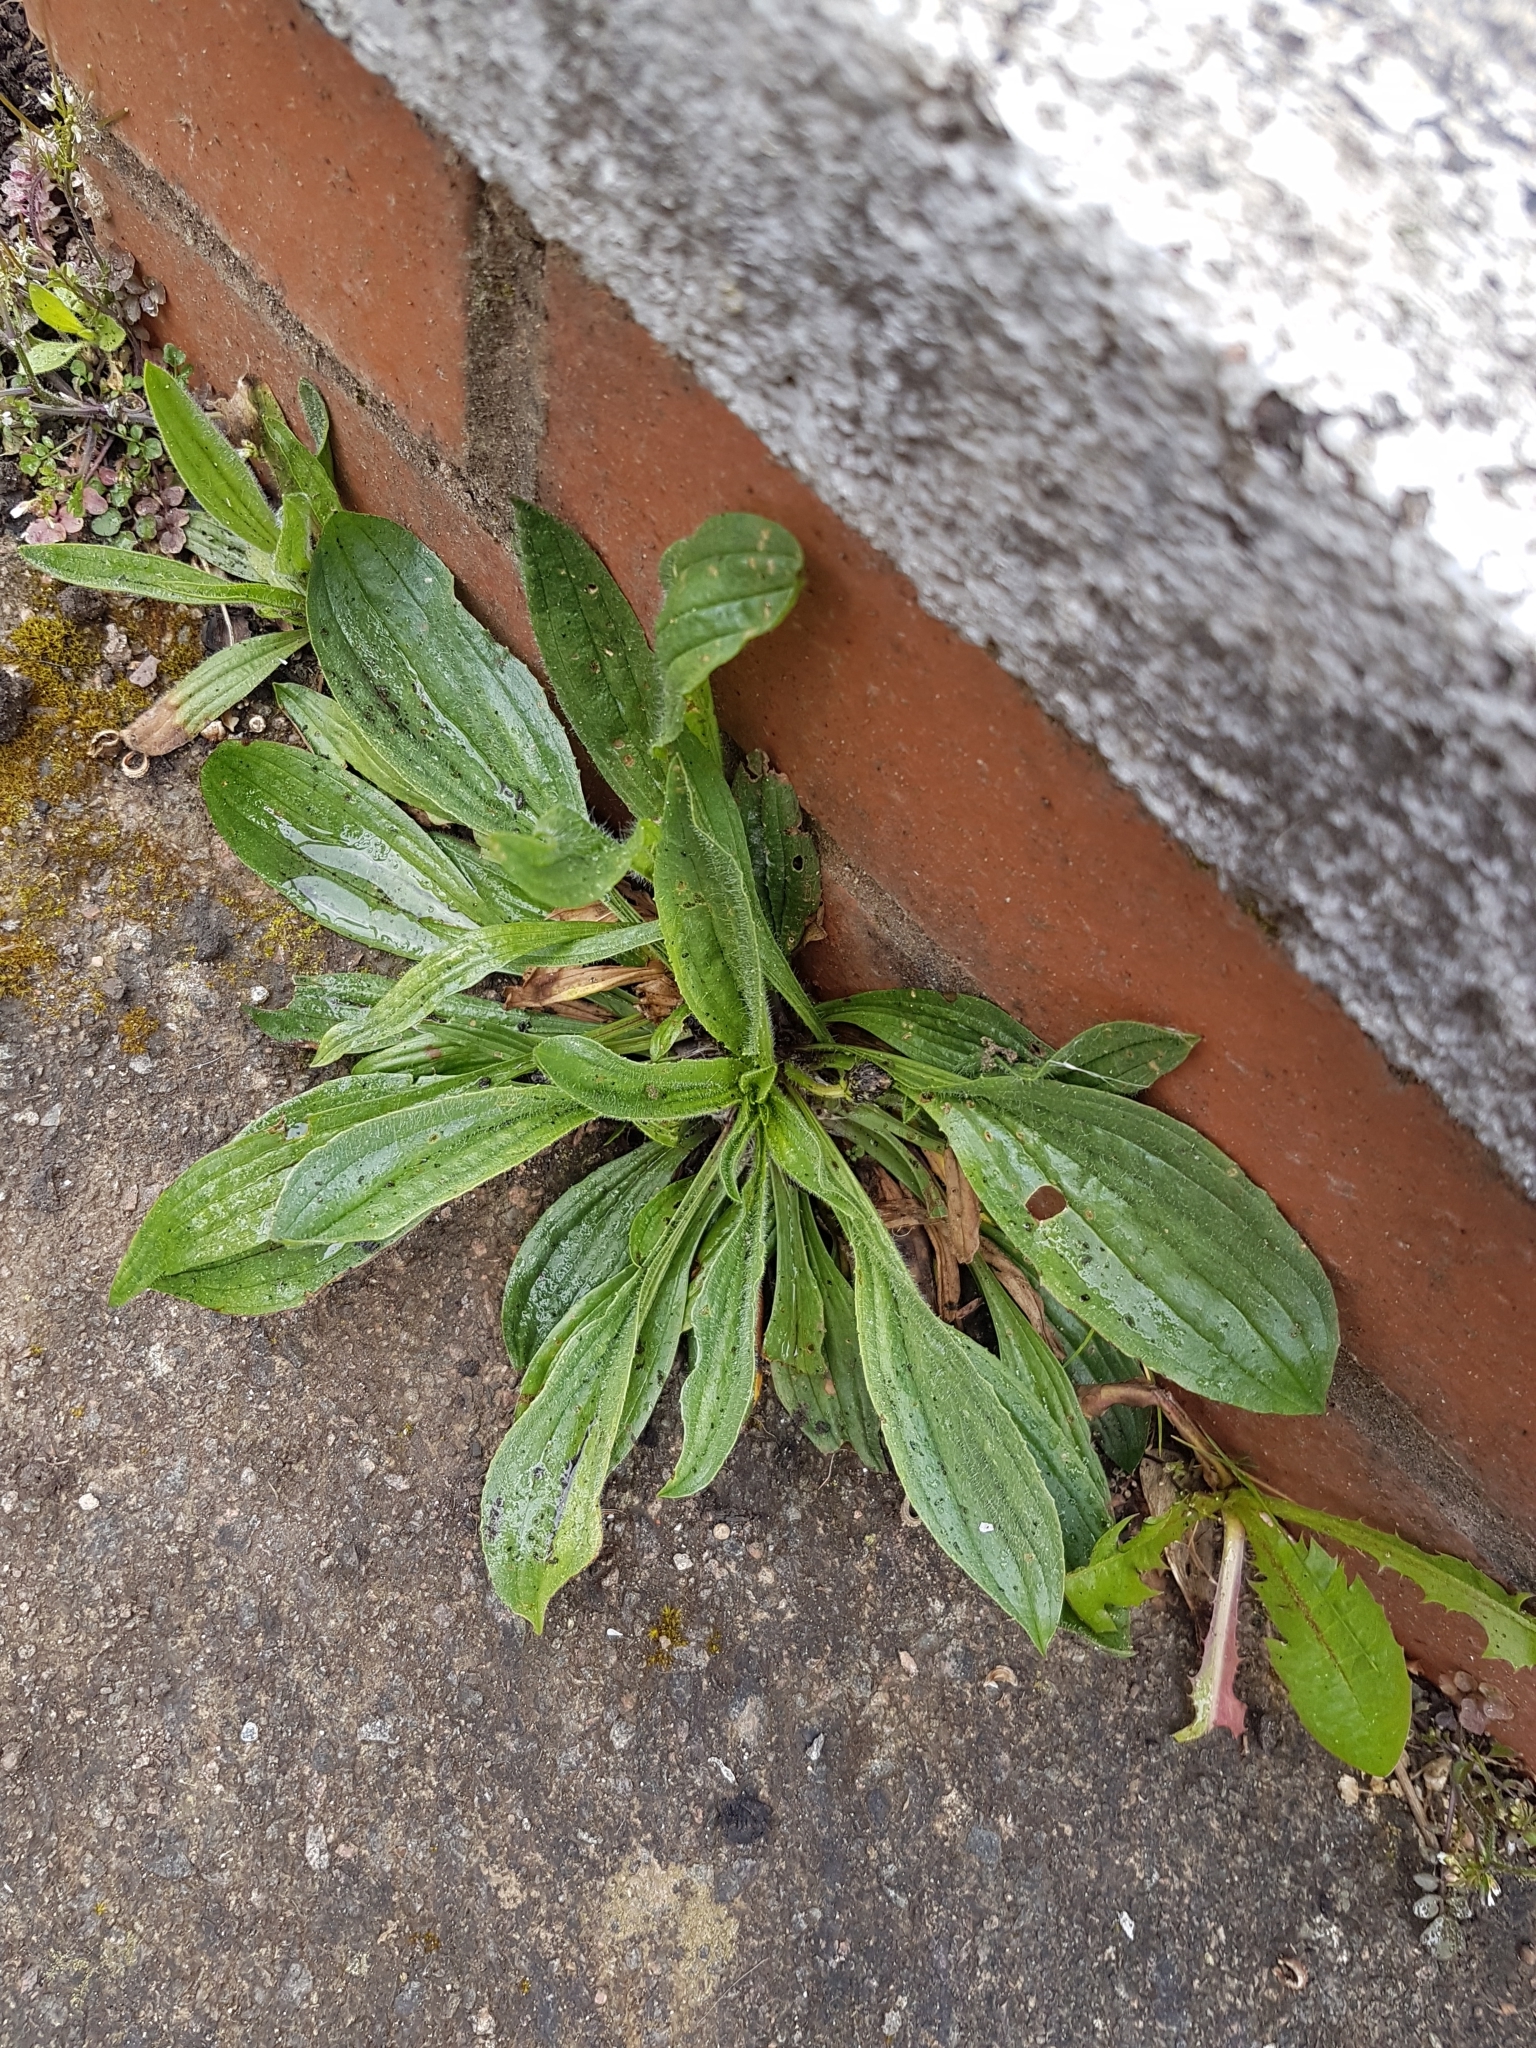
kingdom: Plantae
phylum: Tracheophyta
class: Magnoliopsida
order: Lamiales
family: Plantaginaceae
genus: Plantago
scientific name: Plantago lanceolata
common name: Ribwort plantain
